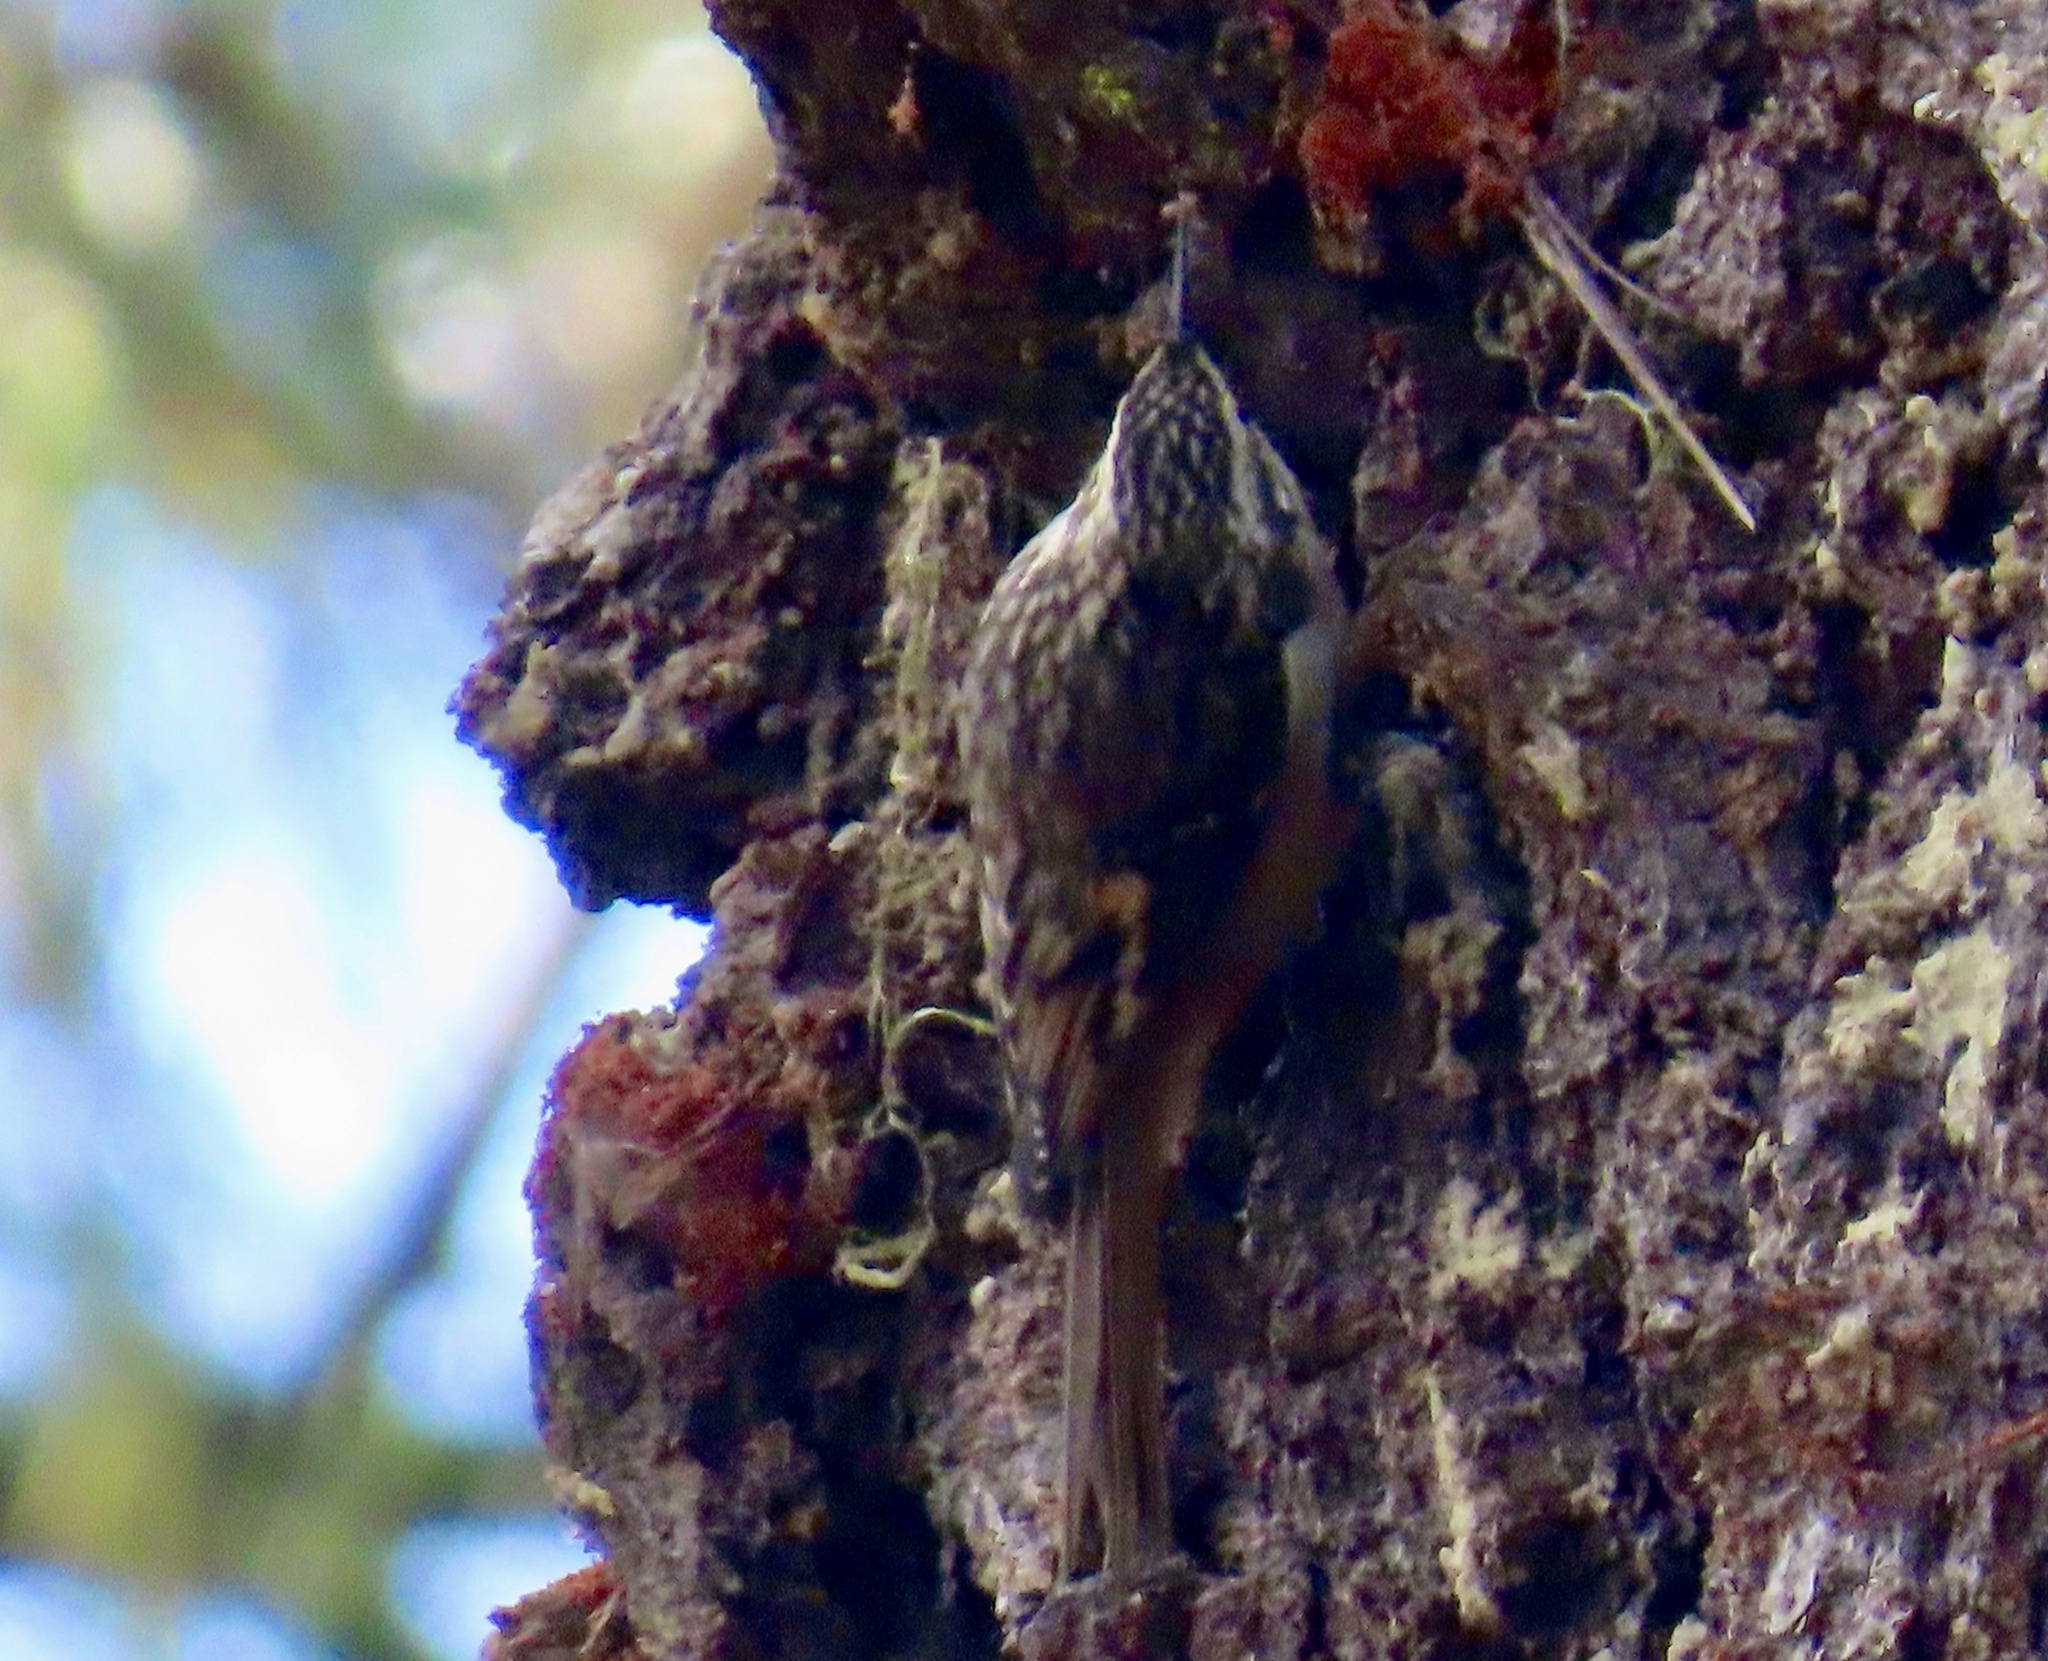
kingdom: Animalia
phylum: Chordata
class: Aves
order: Passeriformes
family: Certhiidae
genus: Certhia
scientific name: Certhia americana
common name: Brown creeper
